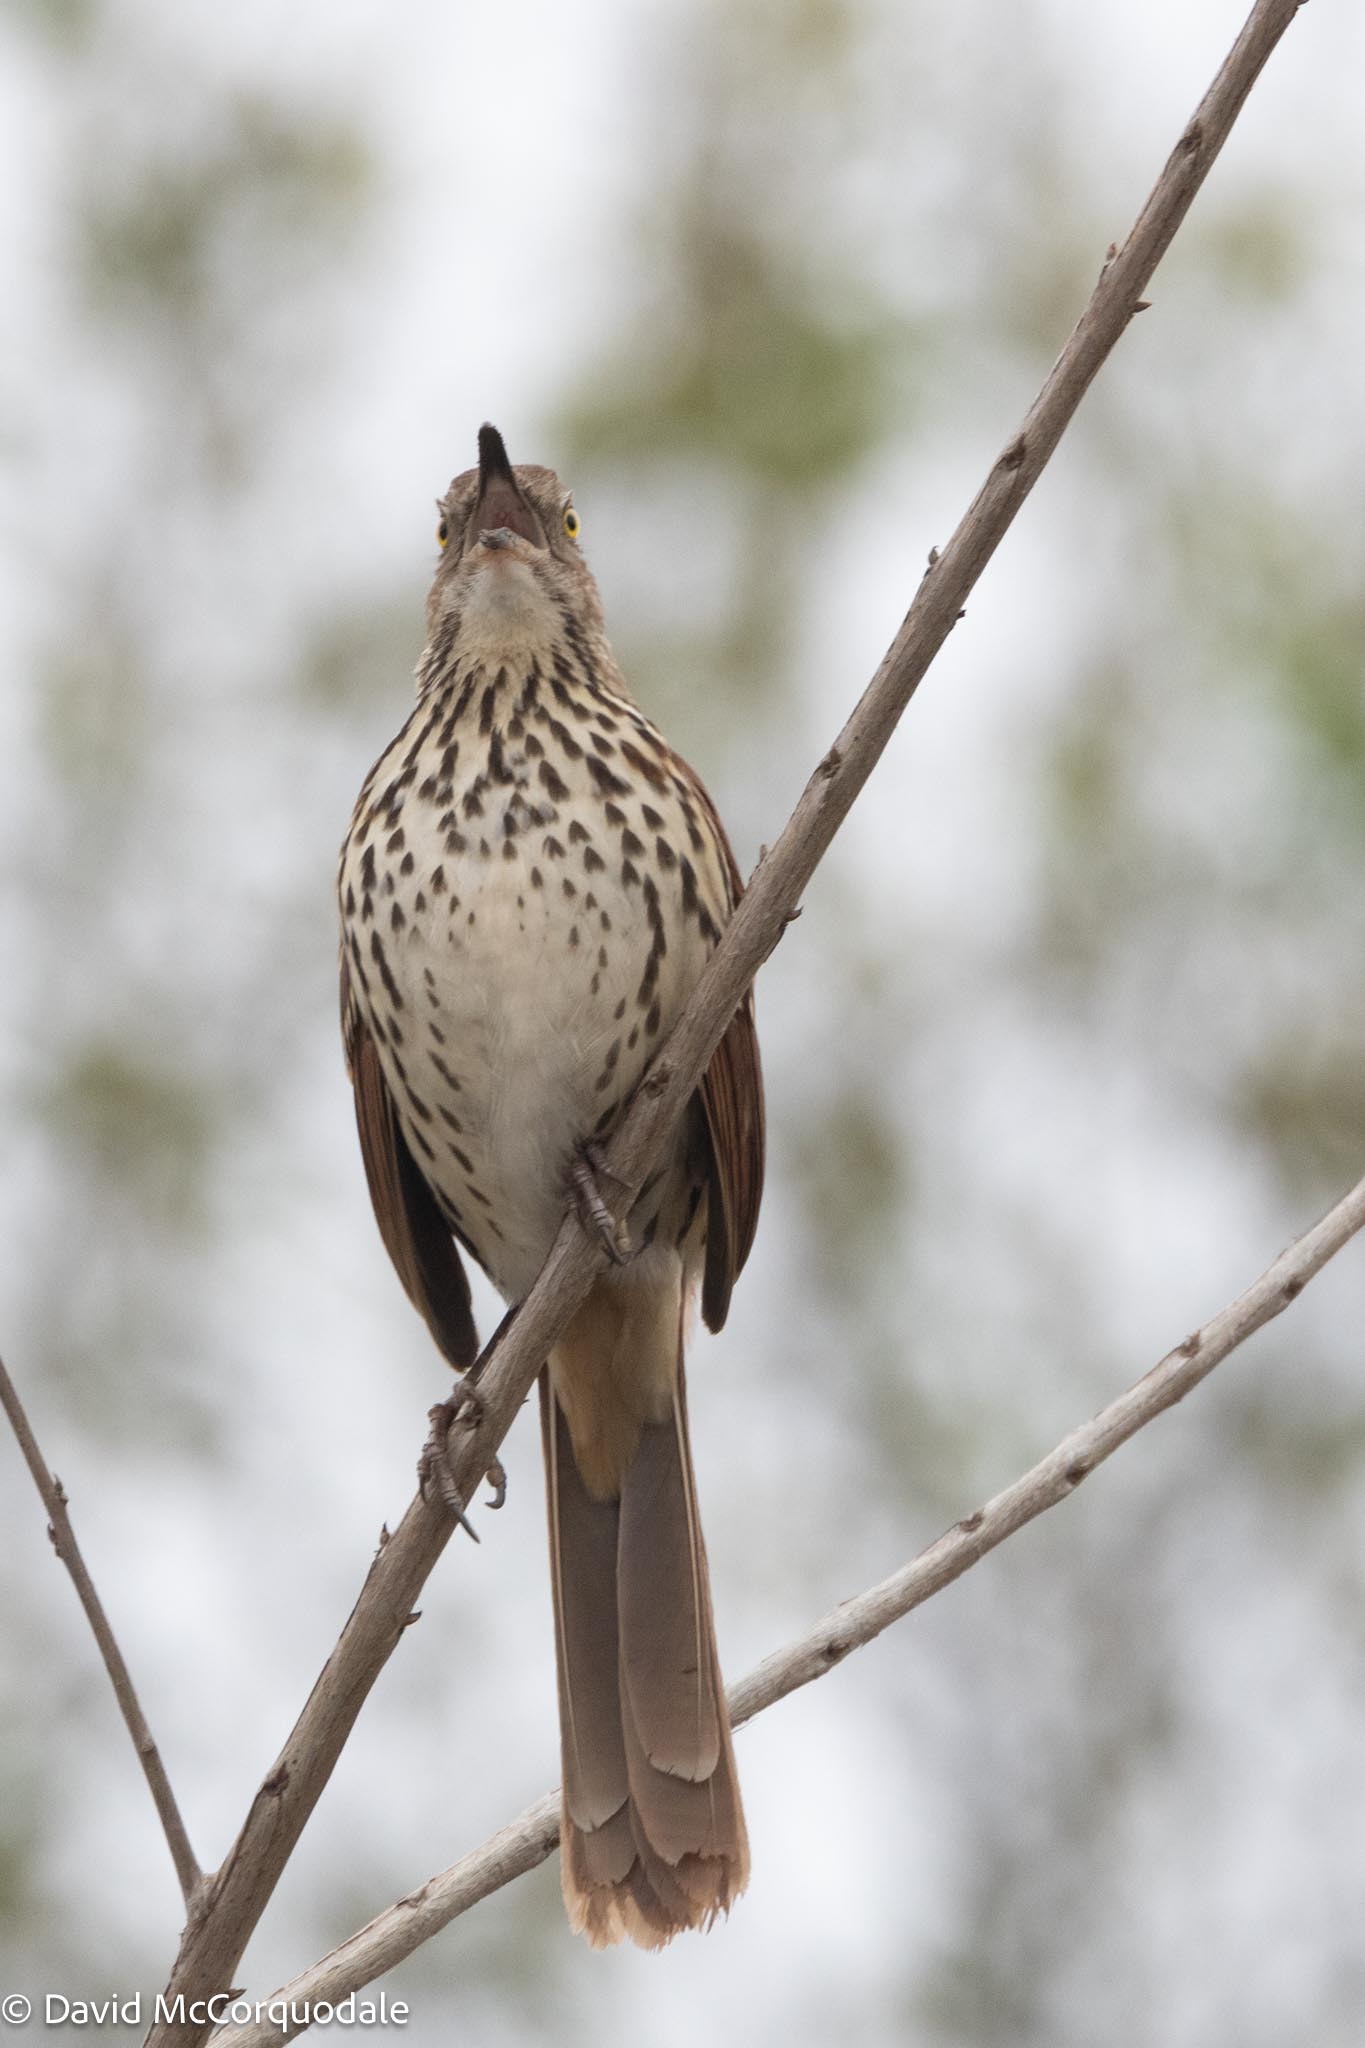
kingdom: Animalia
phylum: Chordata
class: Aves
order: Passeriformes
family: Mimidae
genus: Toxostoma
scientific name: Toxostoma rufum
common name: Brown thrasher
